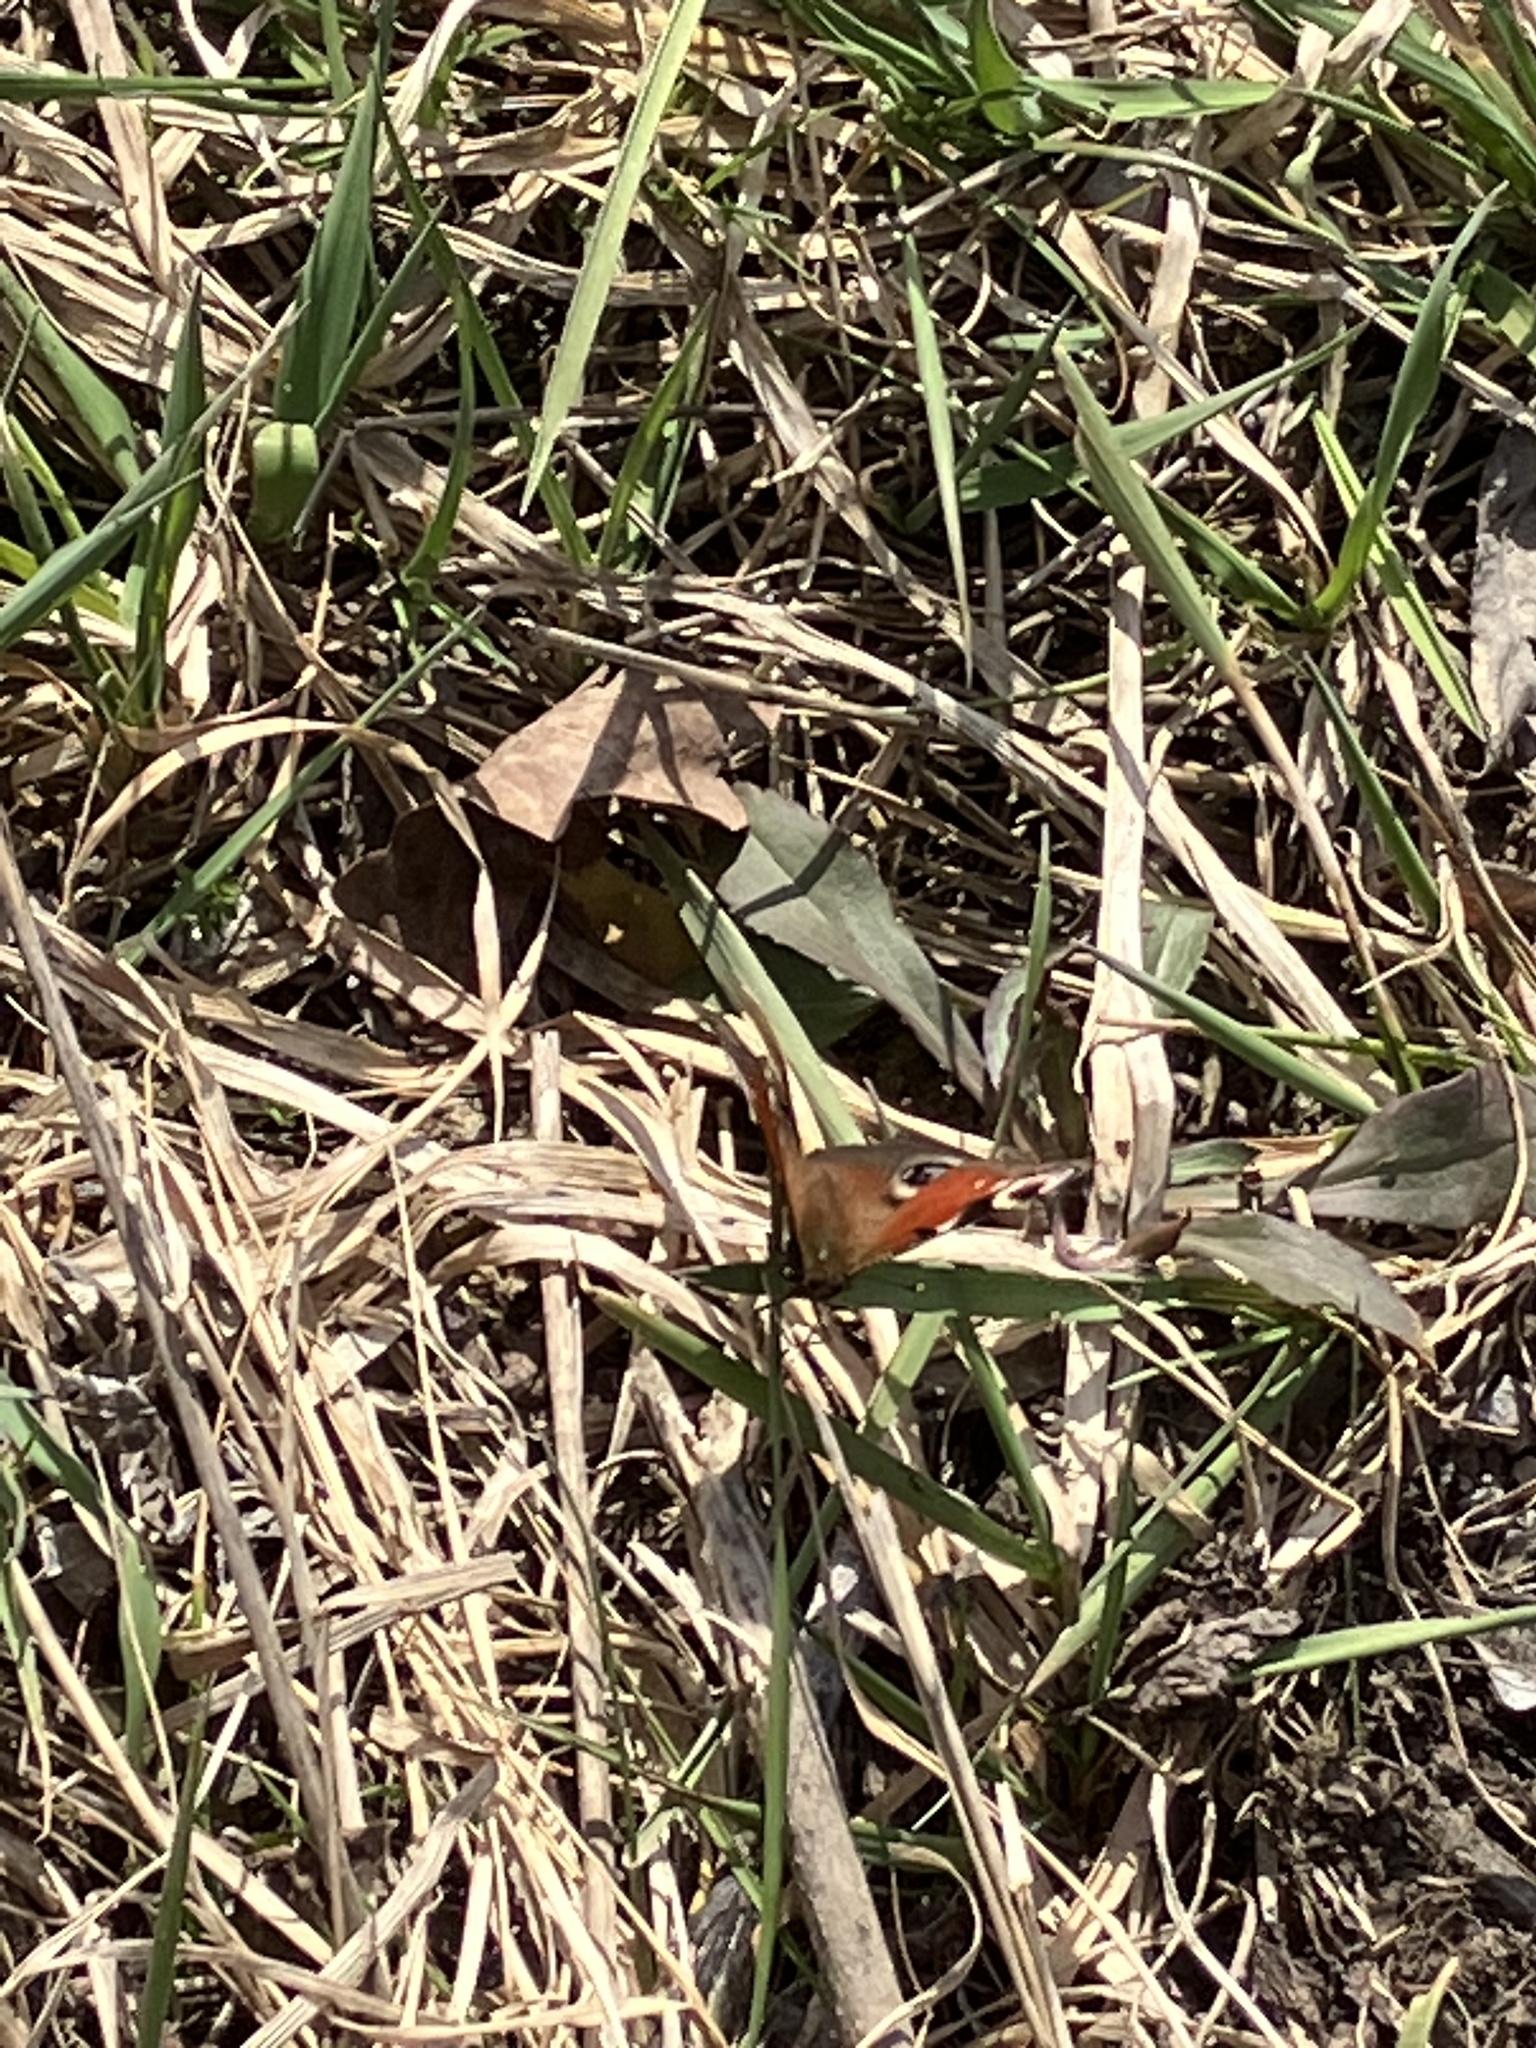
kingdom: Animalia
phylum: Arthropoda
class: Insecta
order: Lepidoptera
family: Nymphalidae
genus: Aglais
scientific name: Aglais io
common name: Peacock
